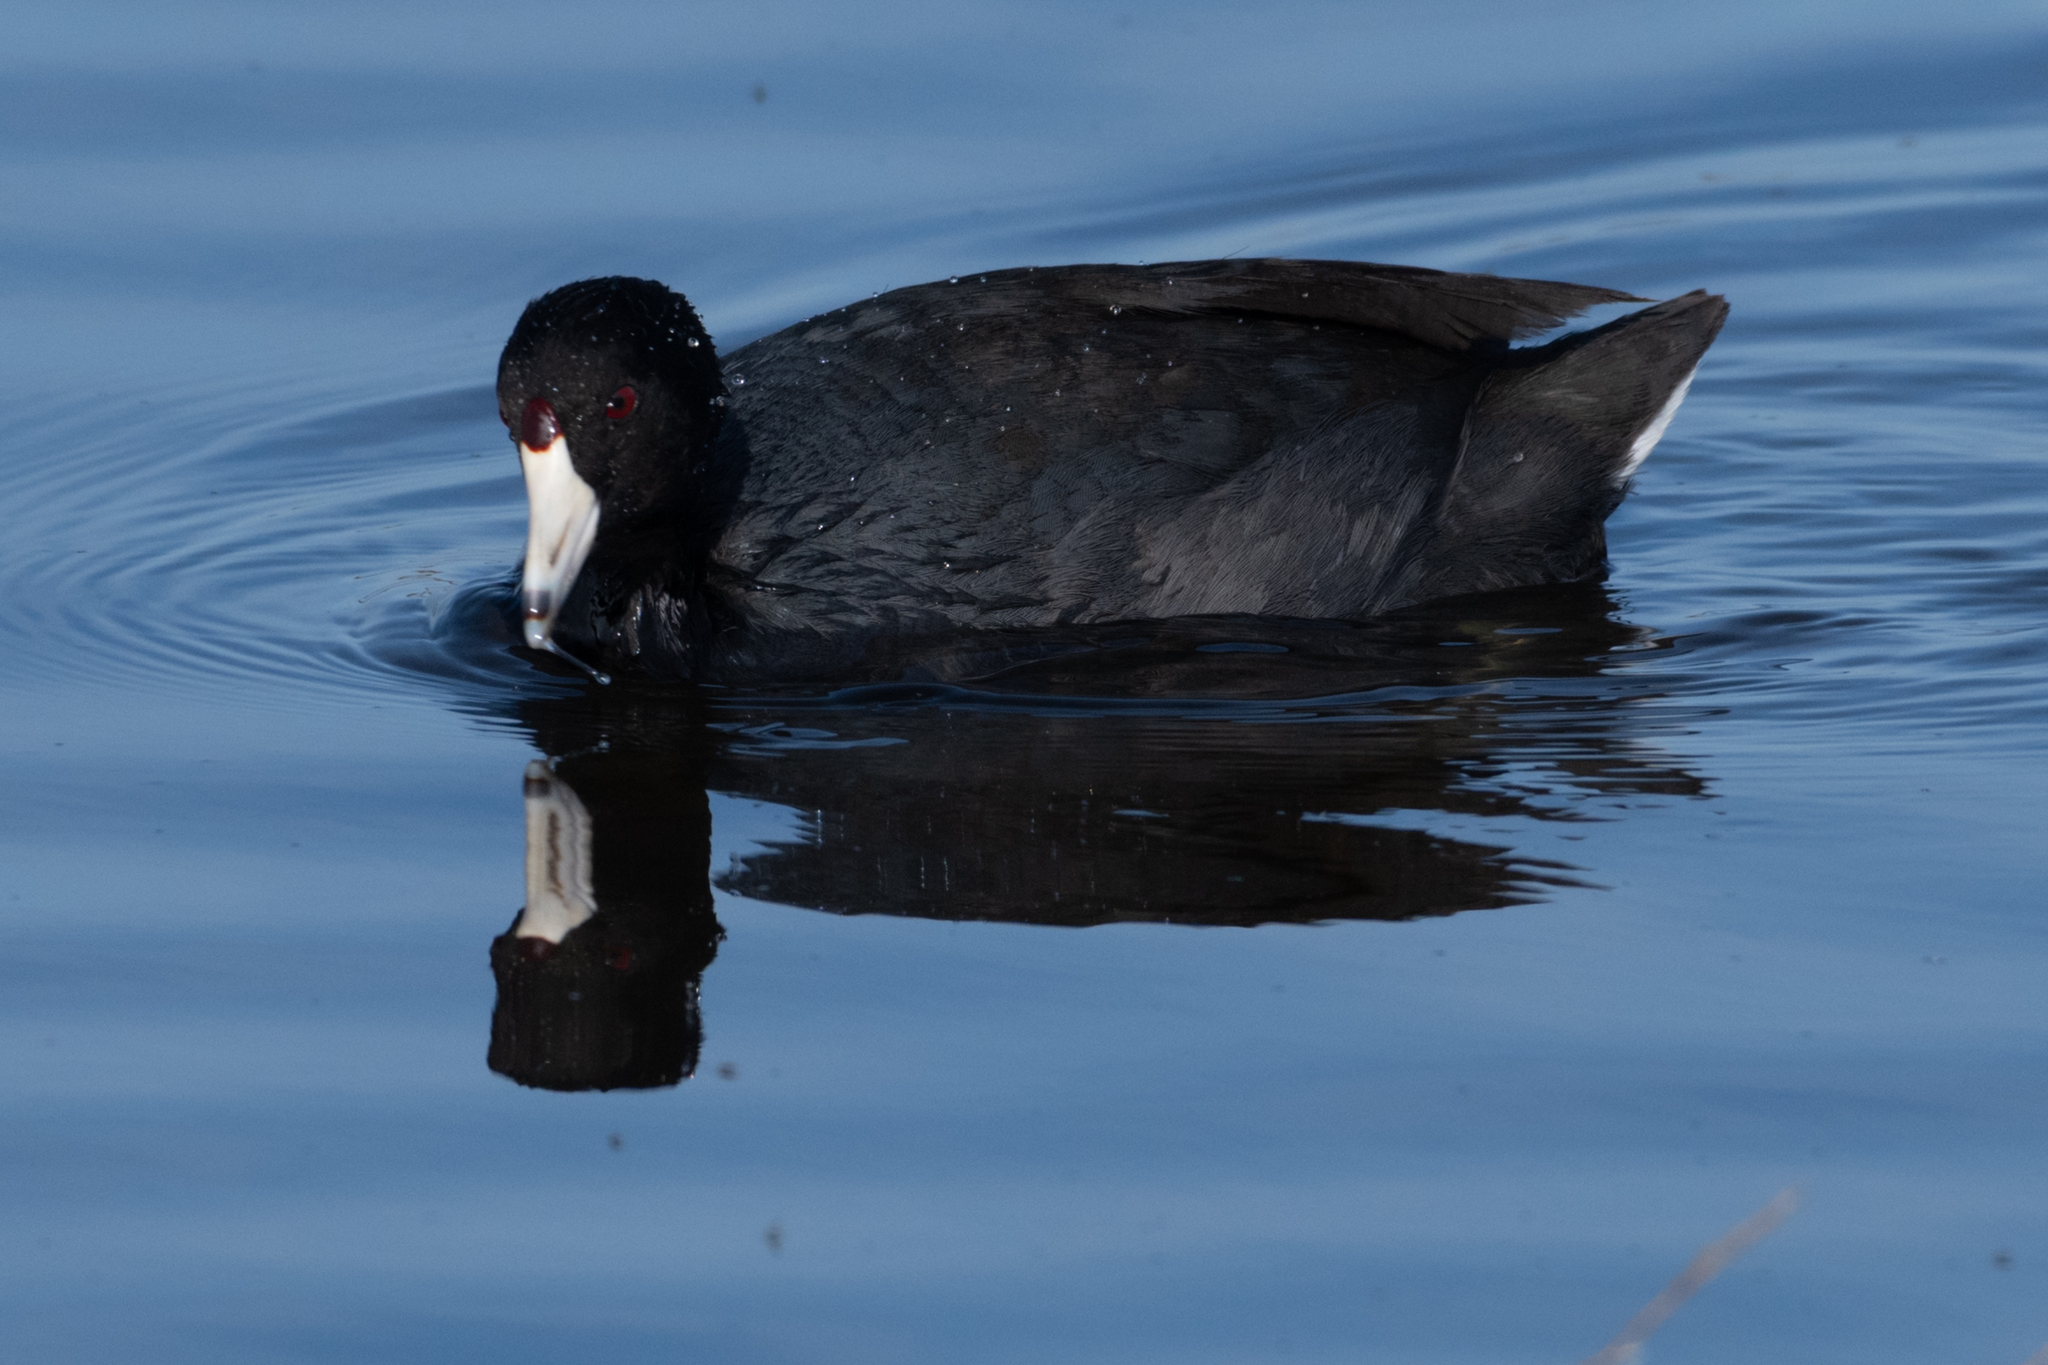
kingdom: Animalia
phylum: Chordata
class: Aves
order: Gruiformes
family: Rallidae
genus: Fulica
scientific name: Fulica americana
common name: American coot
